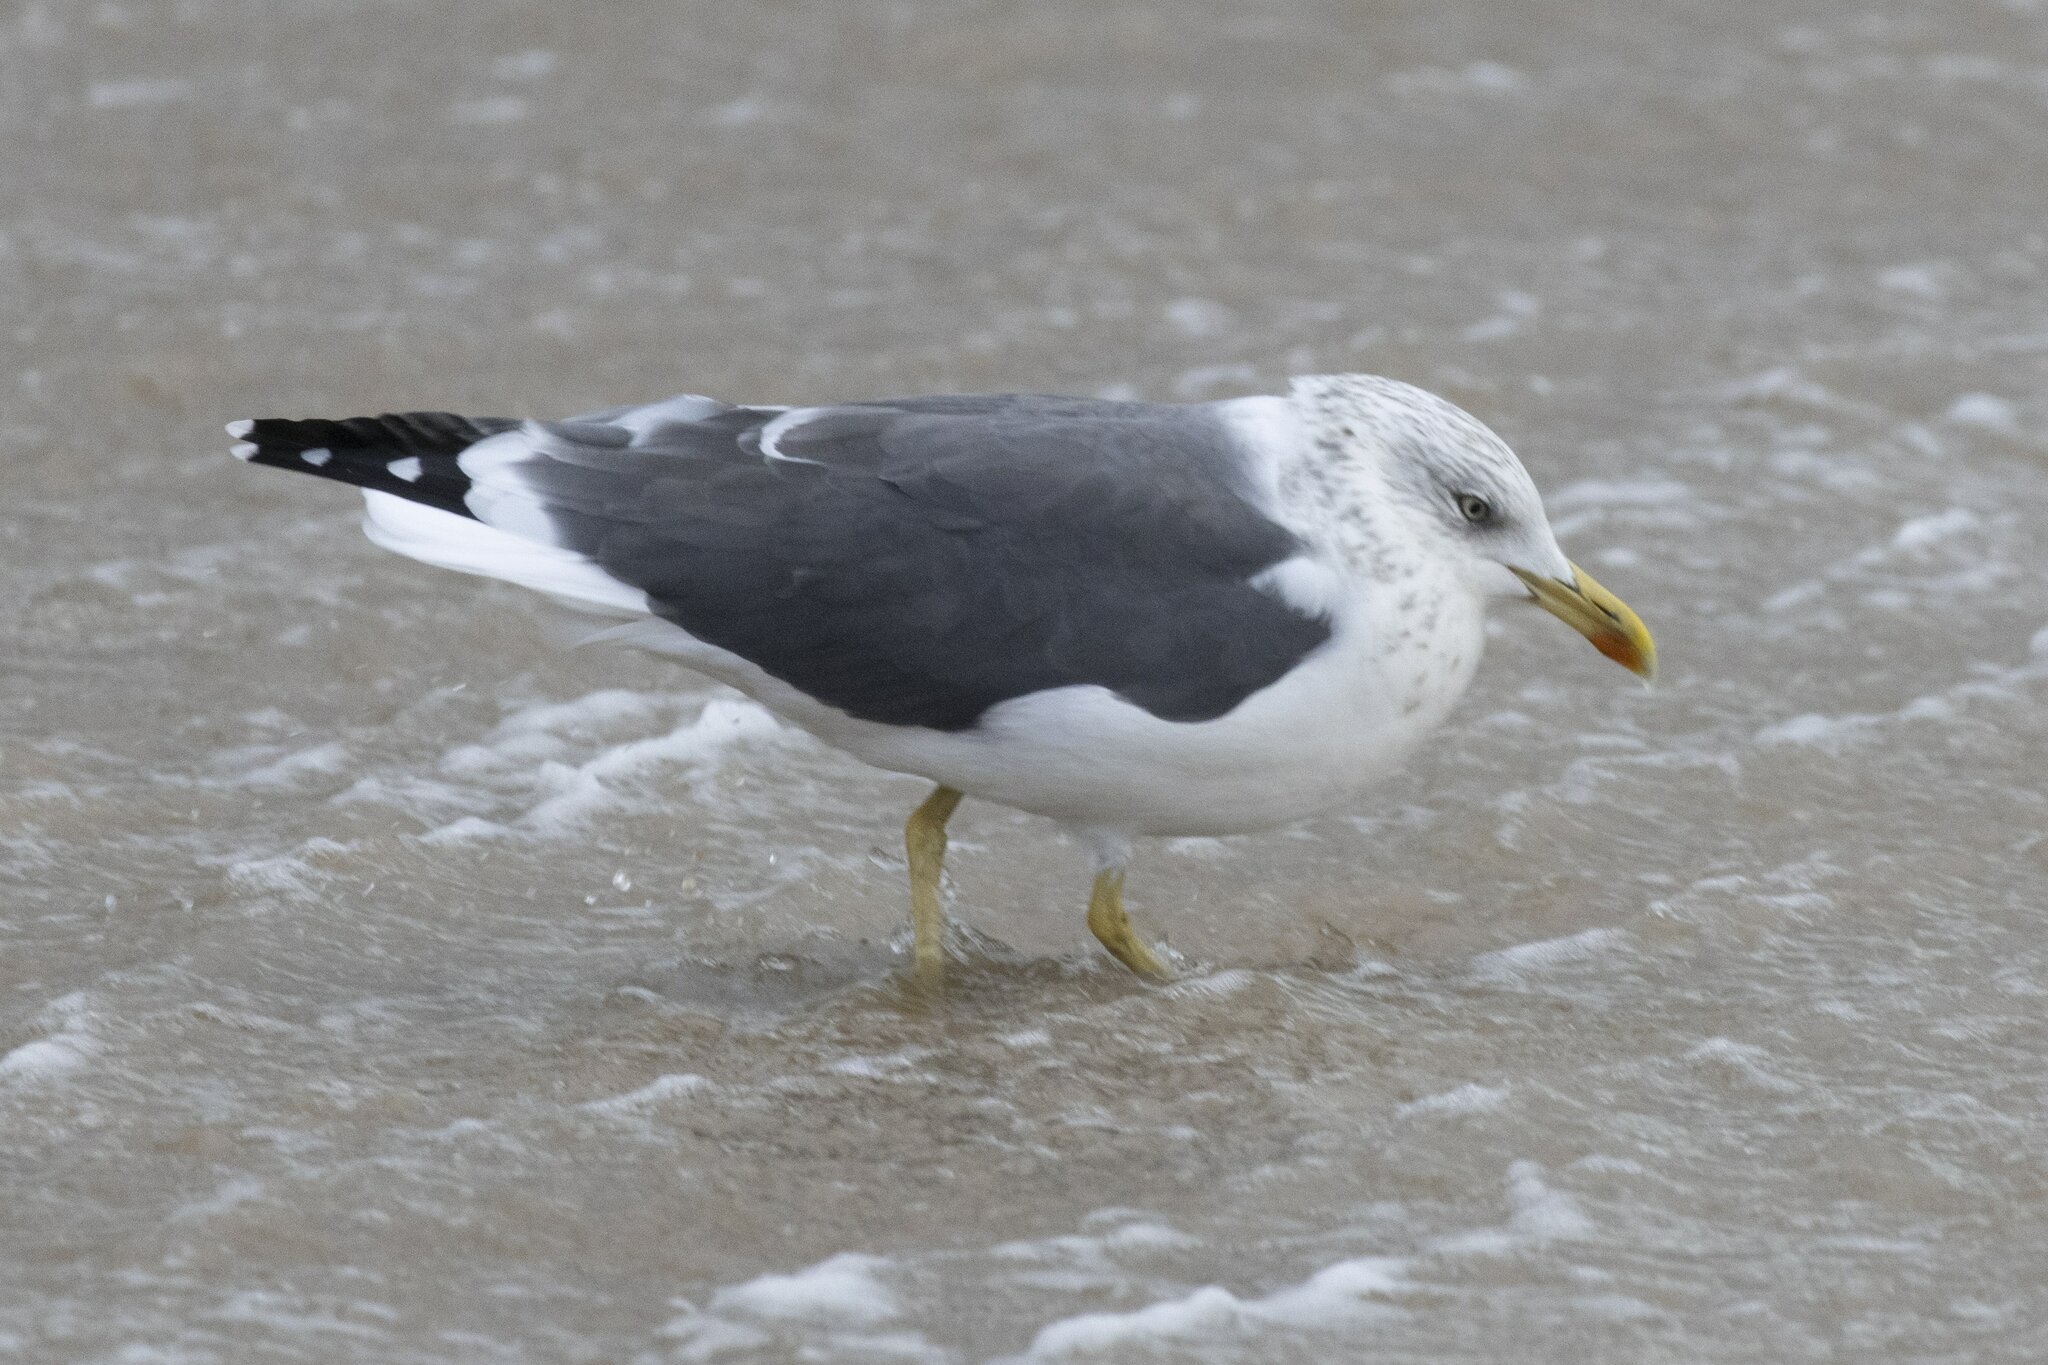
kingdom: Animalia
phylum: Chordata
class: Aves
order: Charadriiformes
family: Laridae
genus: Larus
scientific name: Larus fuscus
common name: Lesser black-backed gull
